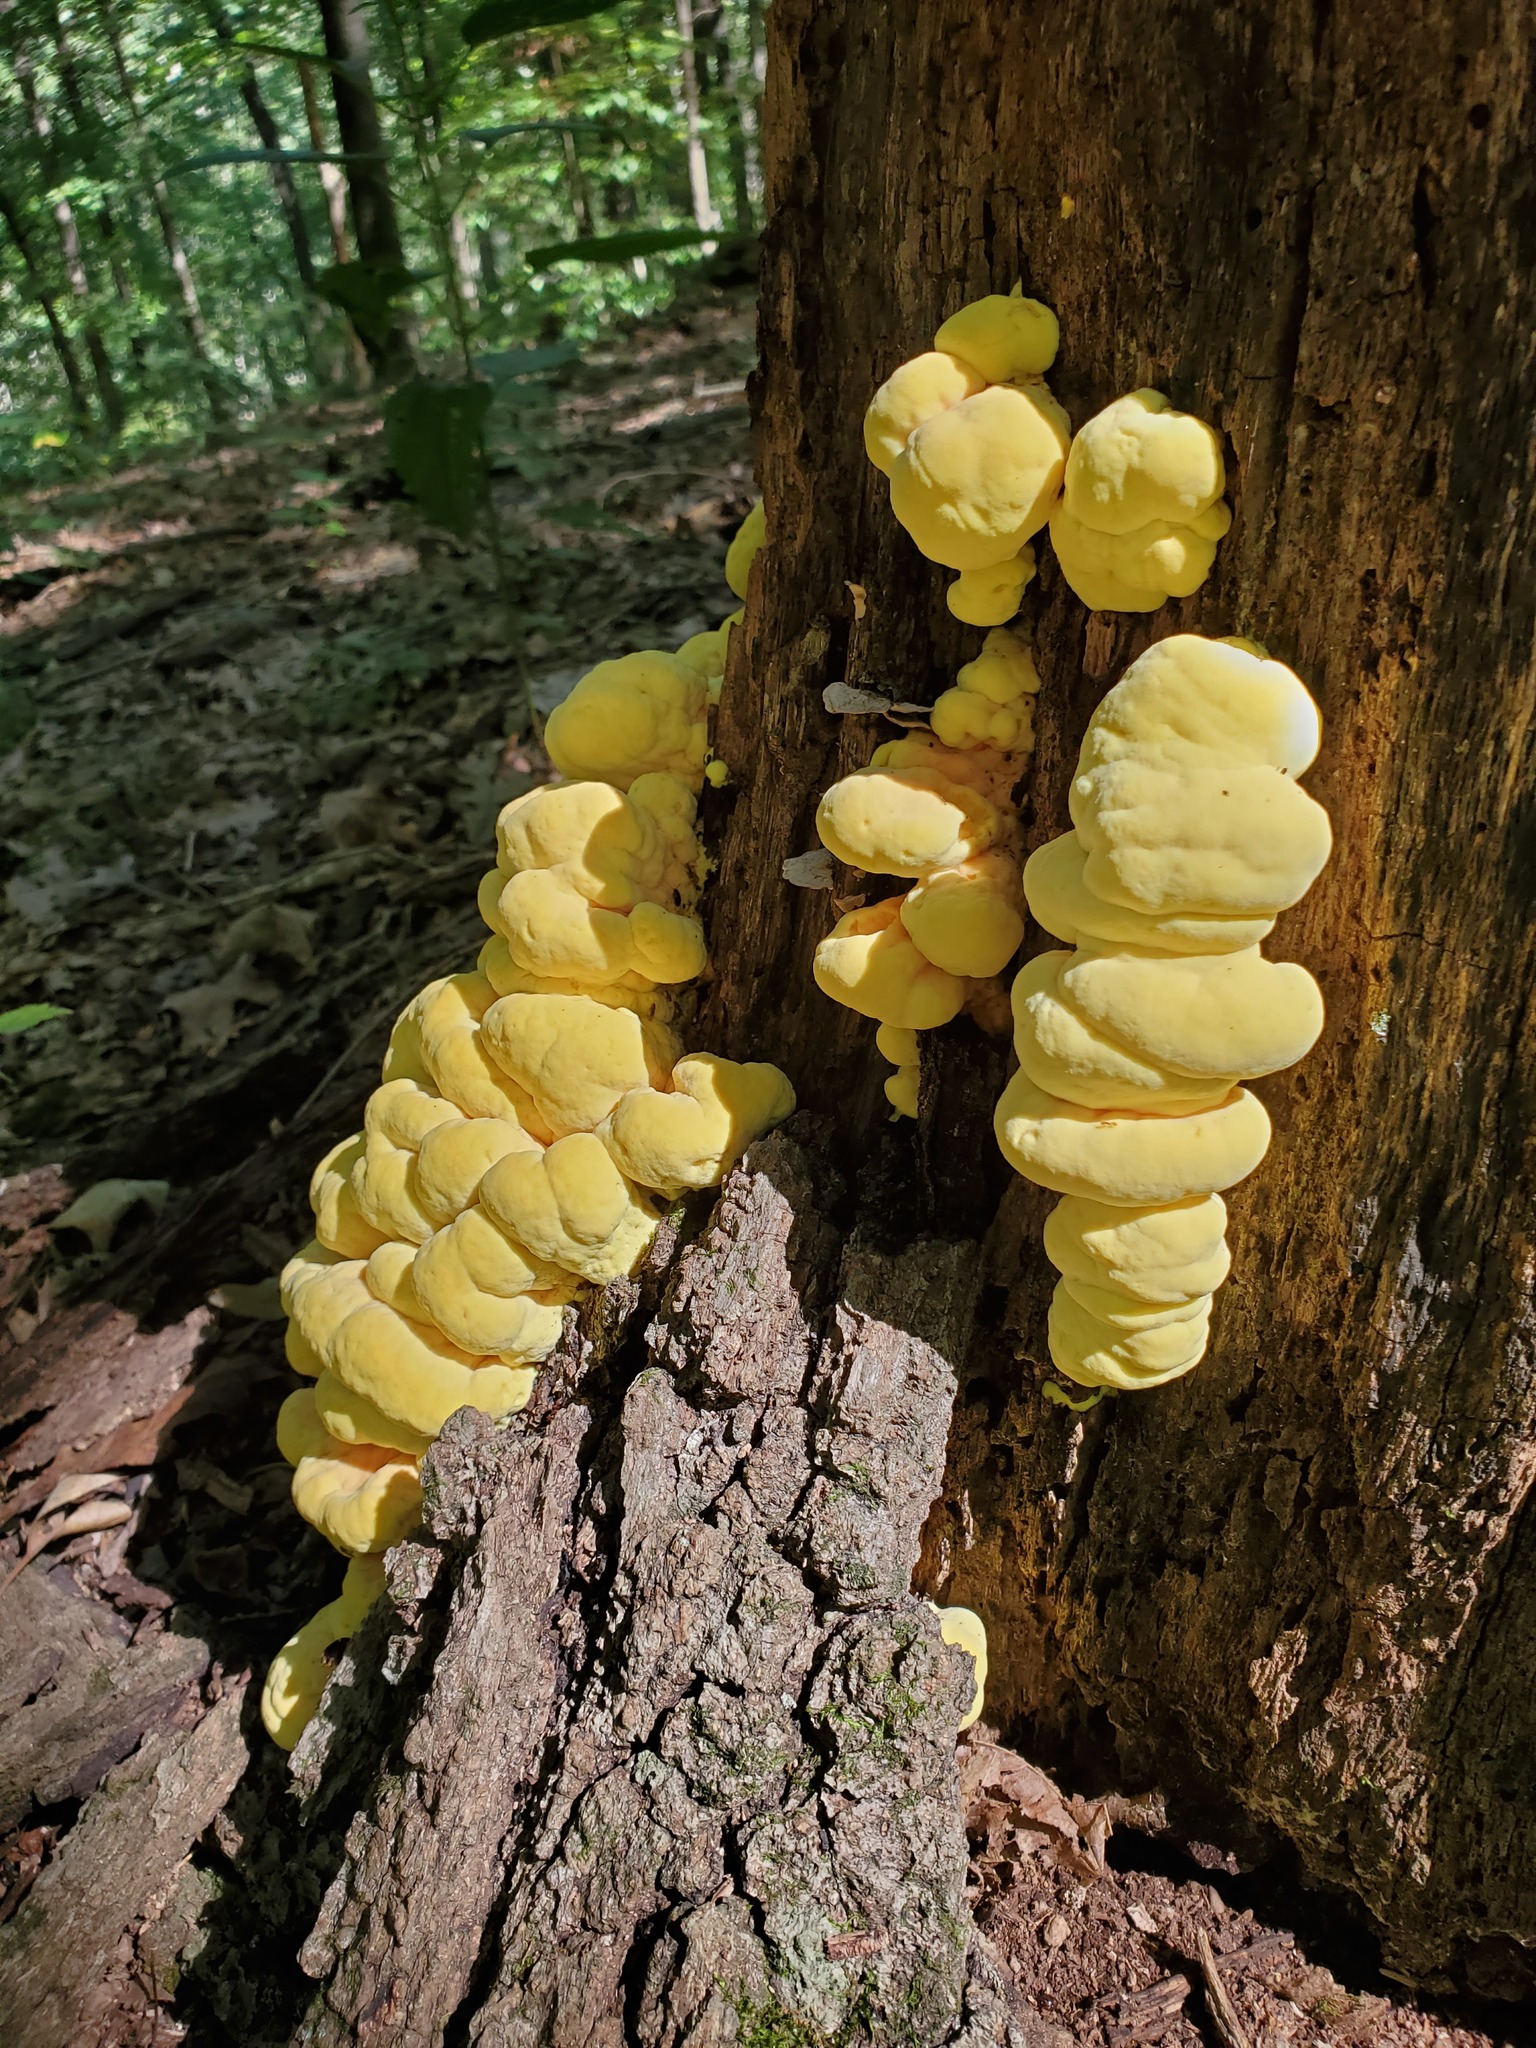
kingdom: Fungi
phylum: Basidiomycota
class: Agaricomycetes
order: Polyporales
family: Laetiporaceae
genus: Laetiporus
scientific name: Laetiporus sulphureus
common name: Chicken of the woods
